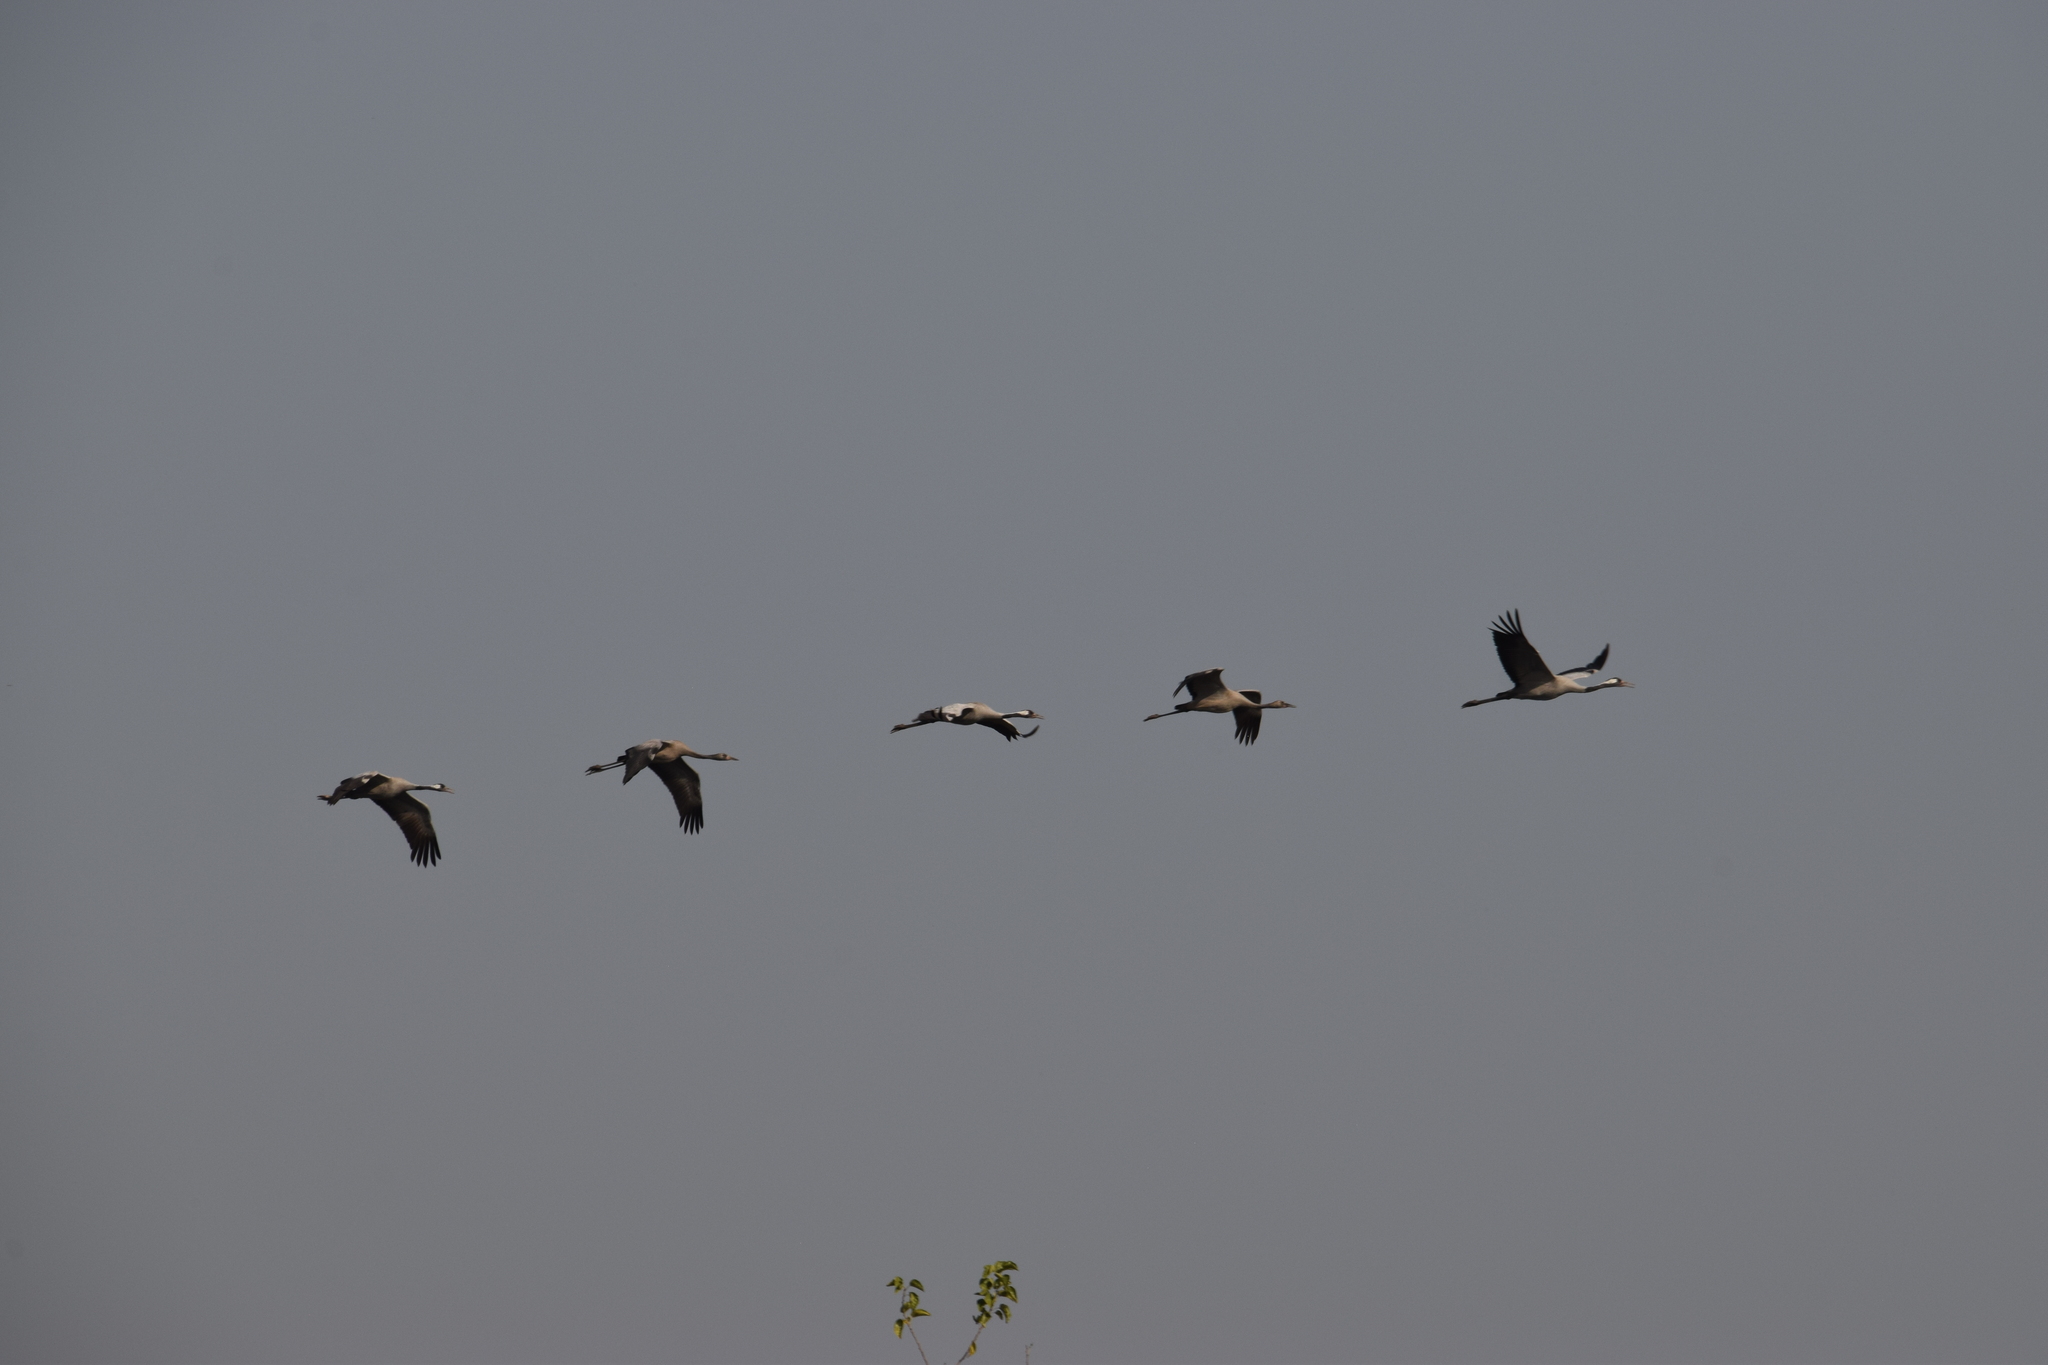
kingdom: Animalia
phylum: Chordata
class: Aves
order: Gruiformes
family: Gruidae
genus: Grus
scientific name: Grus grus
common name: Common crane
